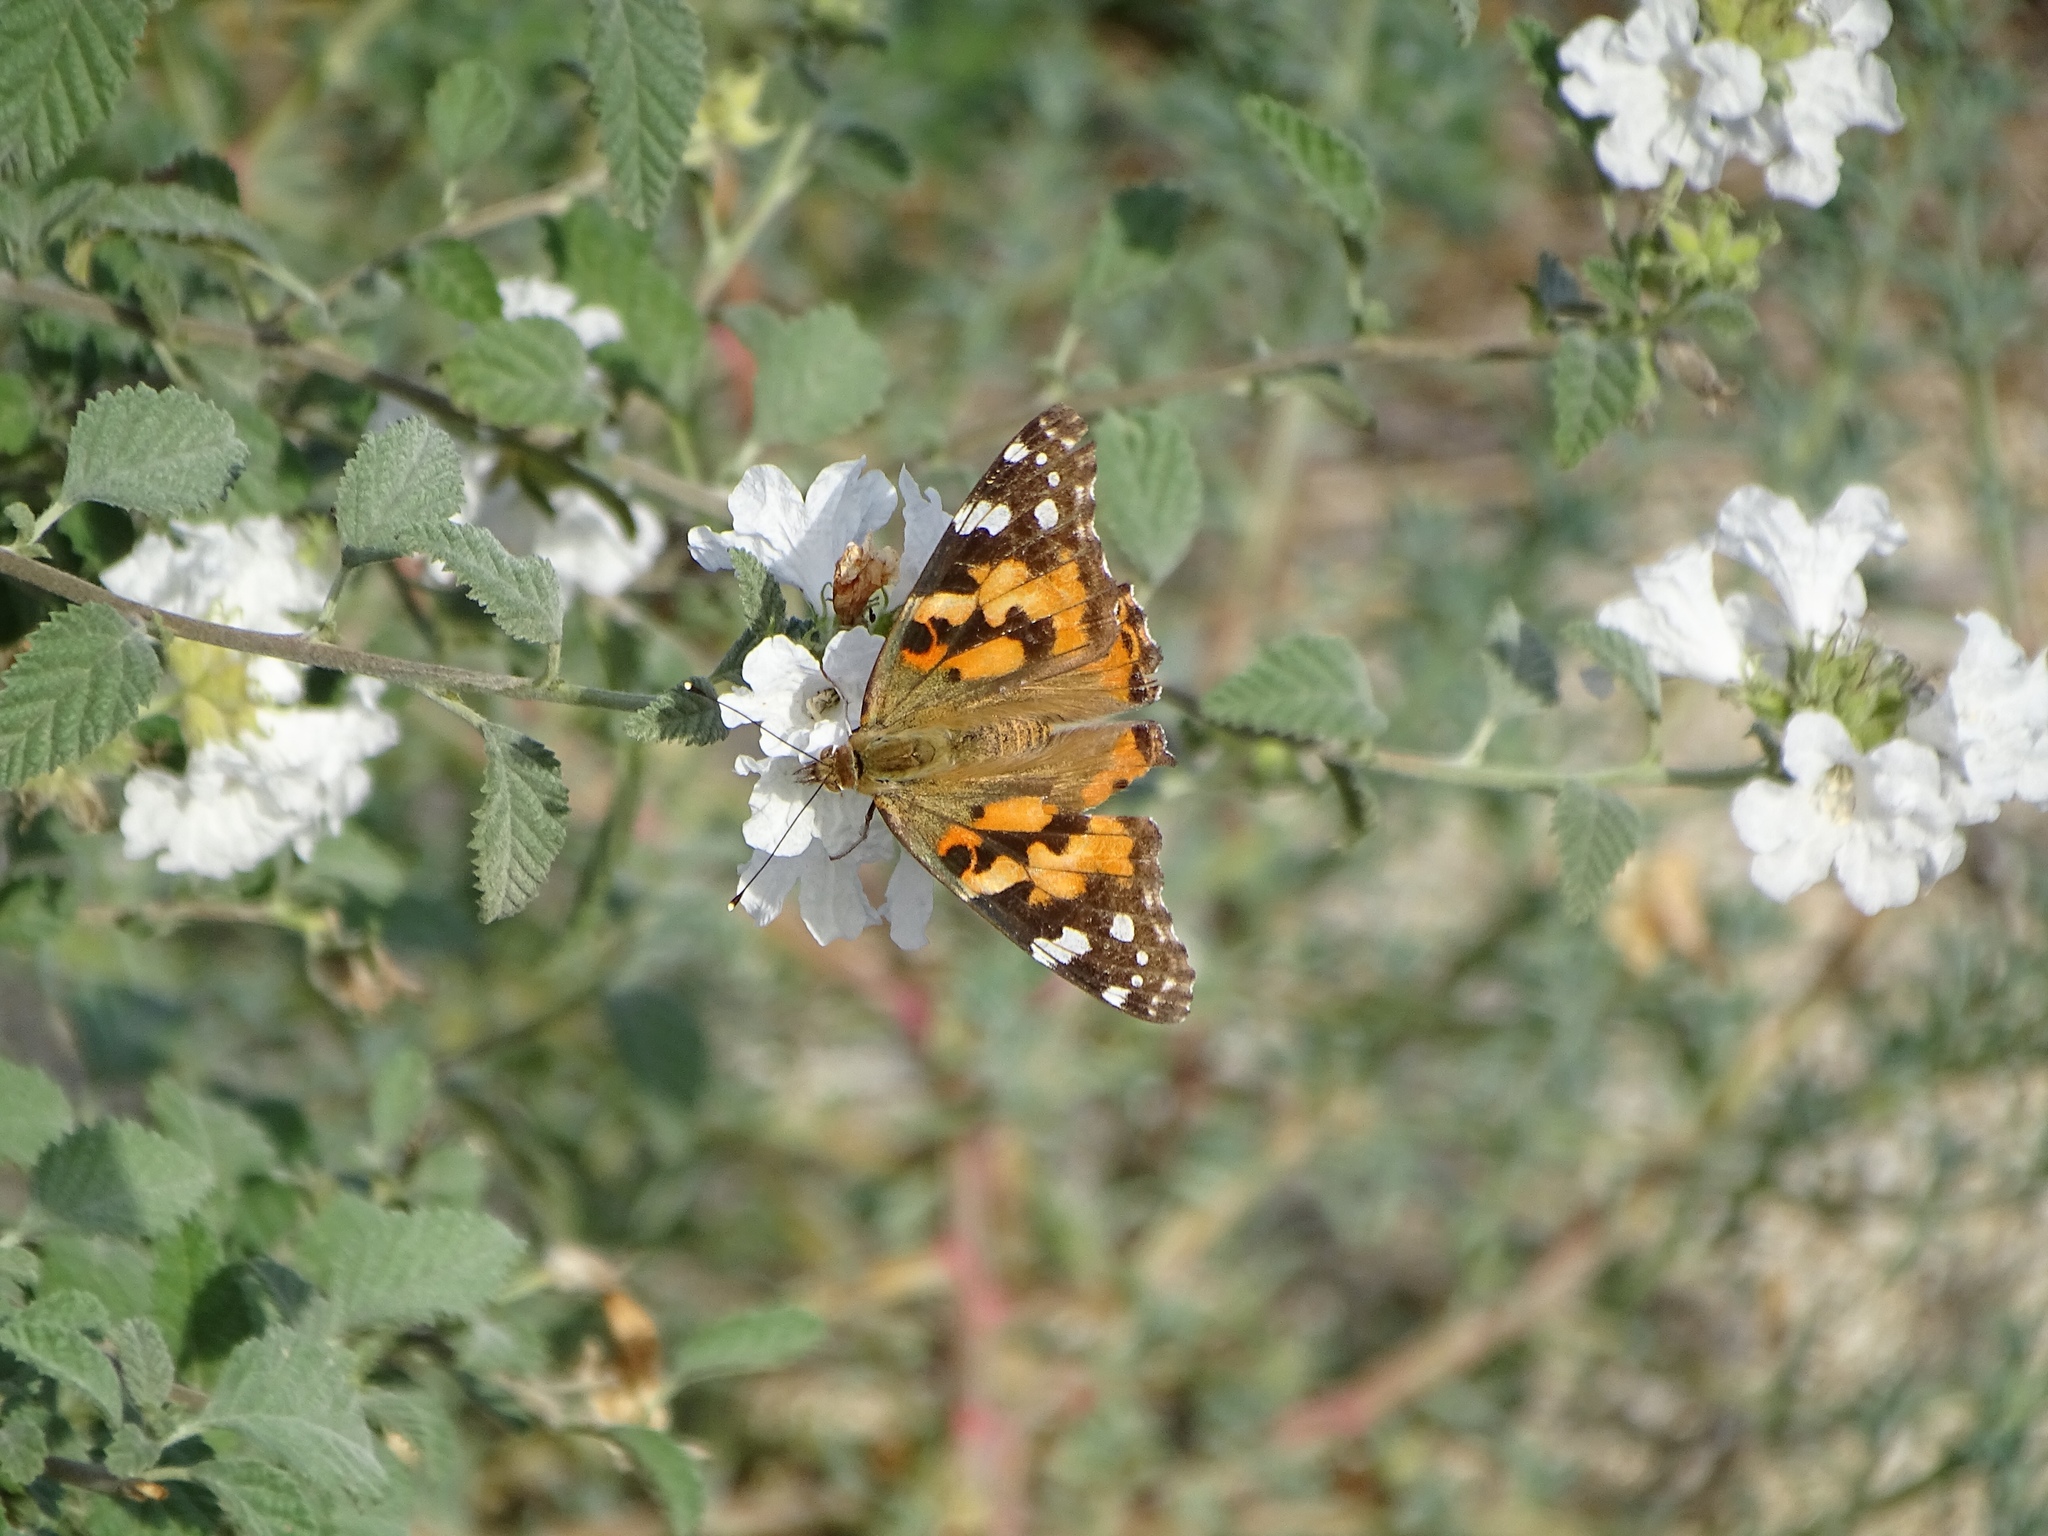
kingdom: Animalia
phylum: Arthropoda
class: Insecta
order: Lepidoptera
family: Nymphalidae
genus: Vanessa
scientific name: Vanessa cardui
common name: Painted lady
